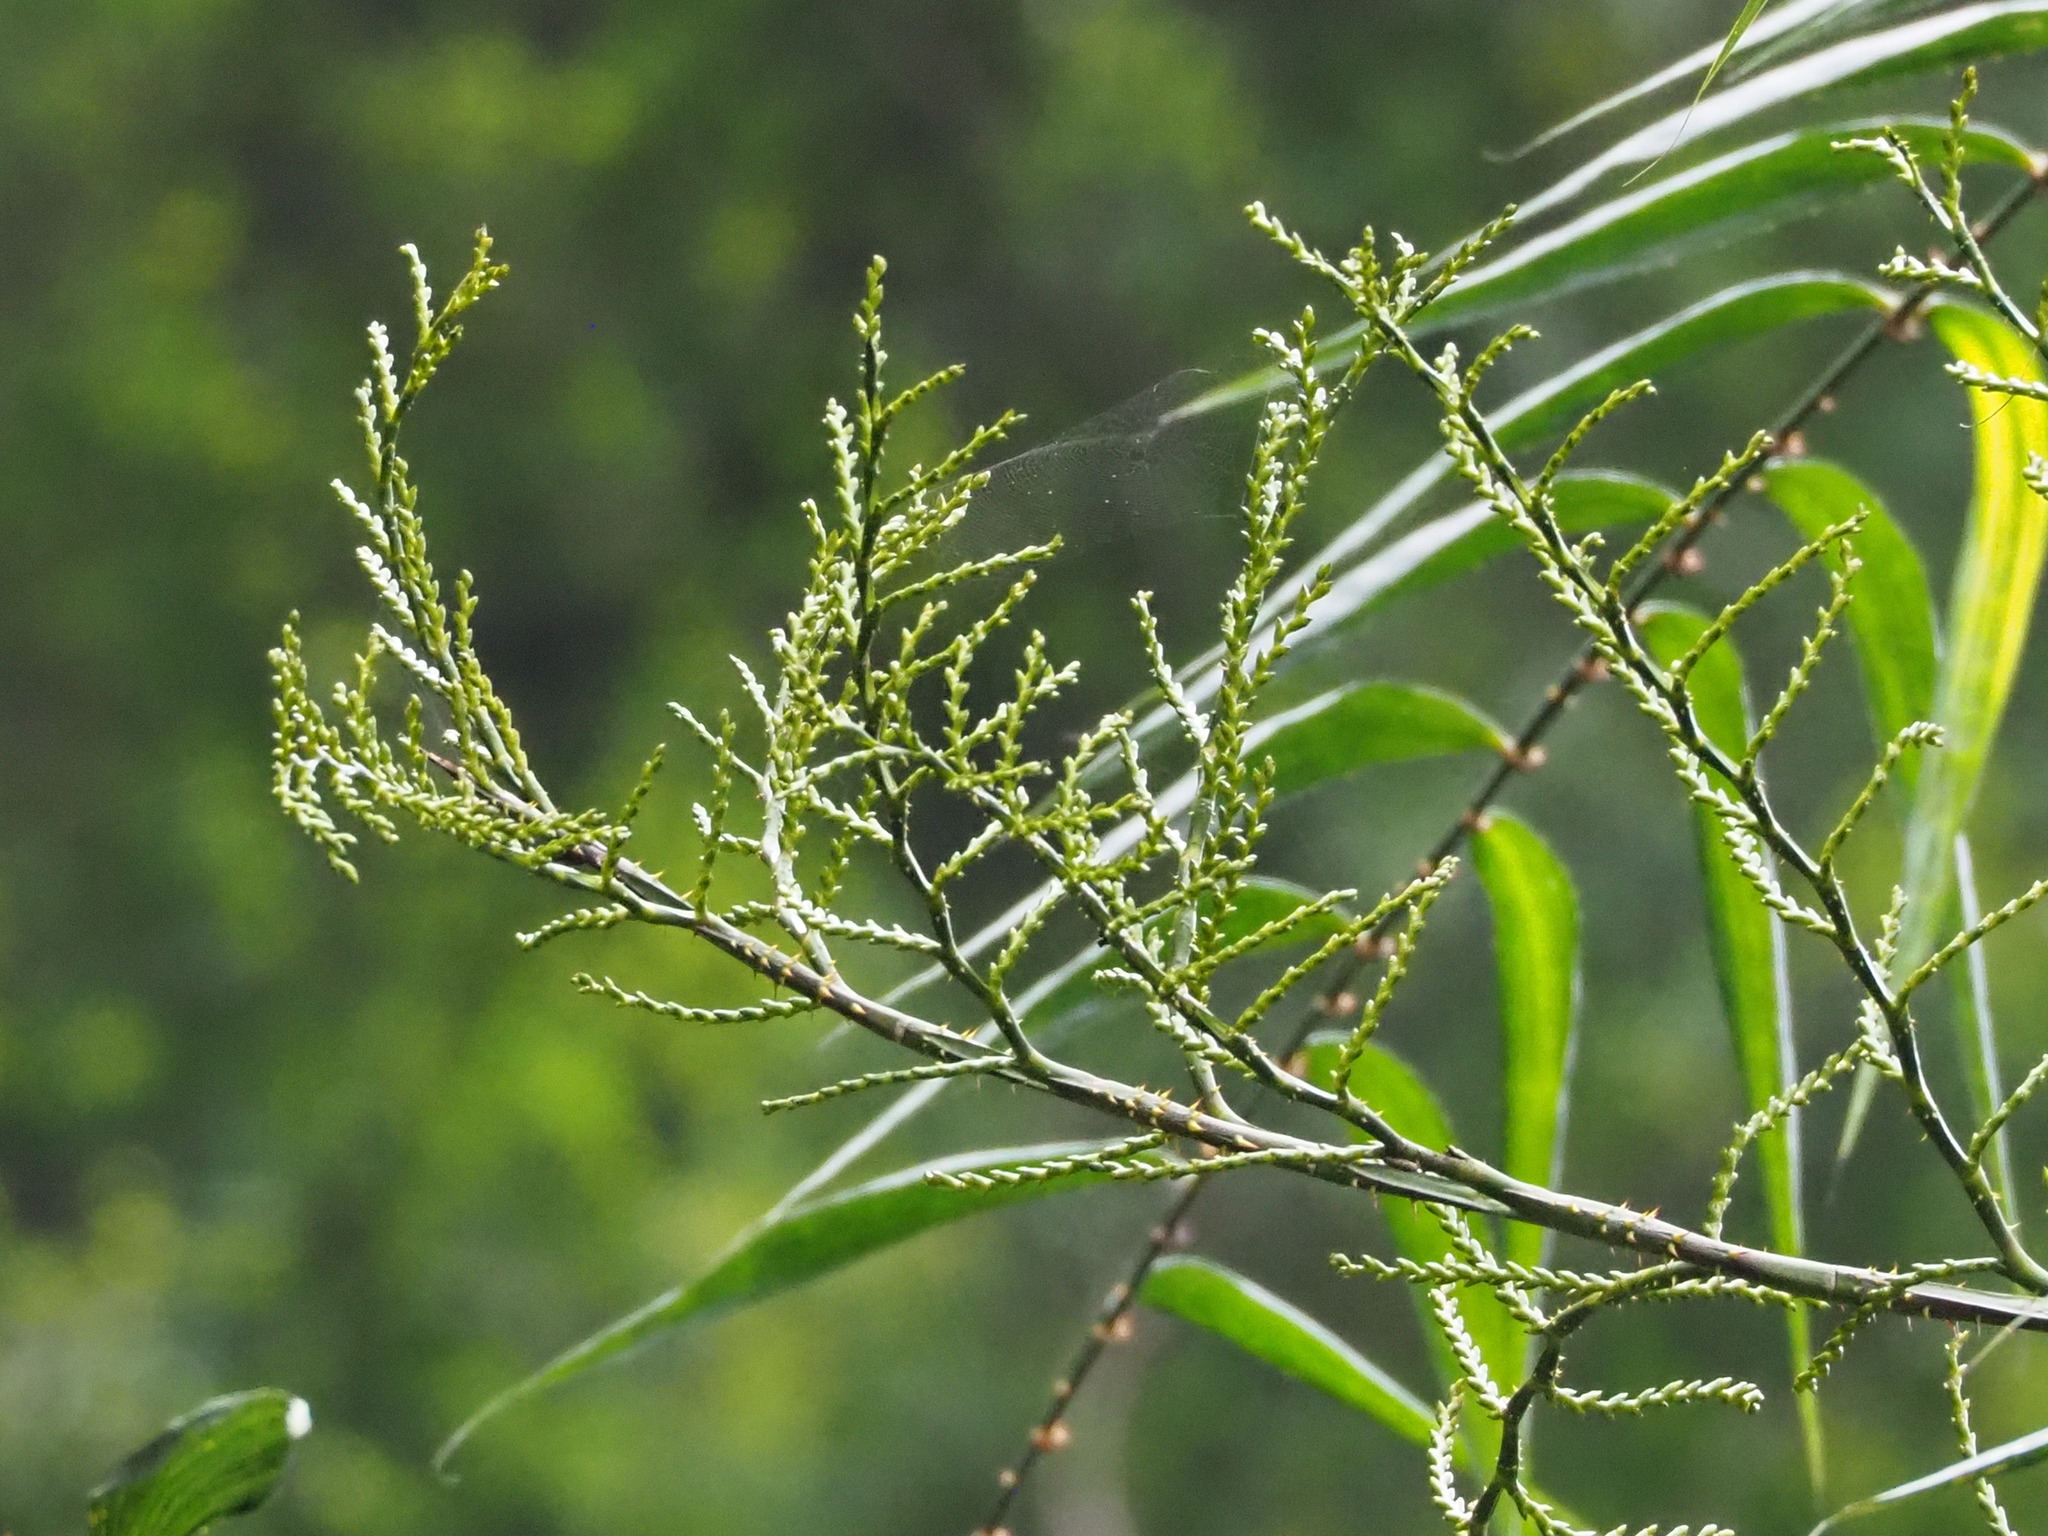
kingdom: Plantae
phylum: Tracheophyta
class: Liliopsida
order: Arecales
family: Arecaceae
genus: Calamus
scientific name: Calamus formosanus
